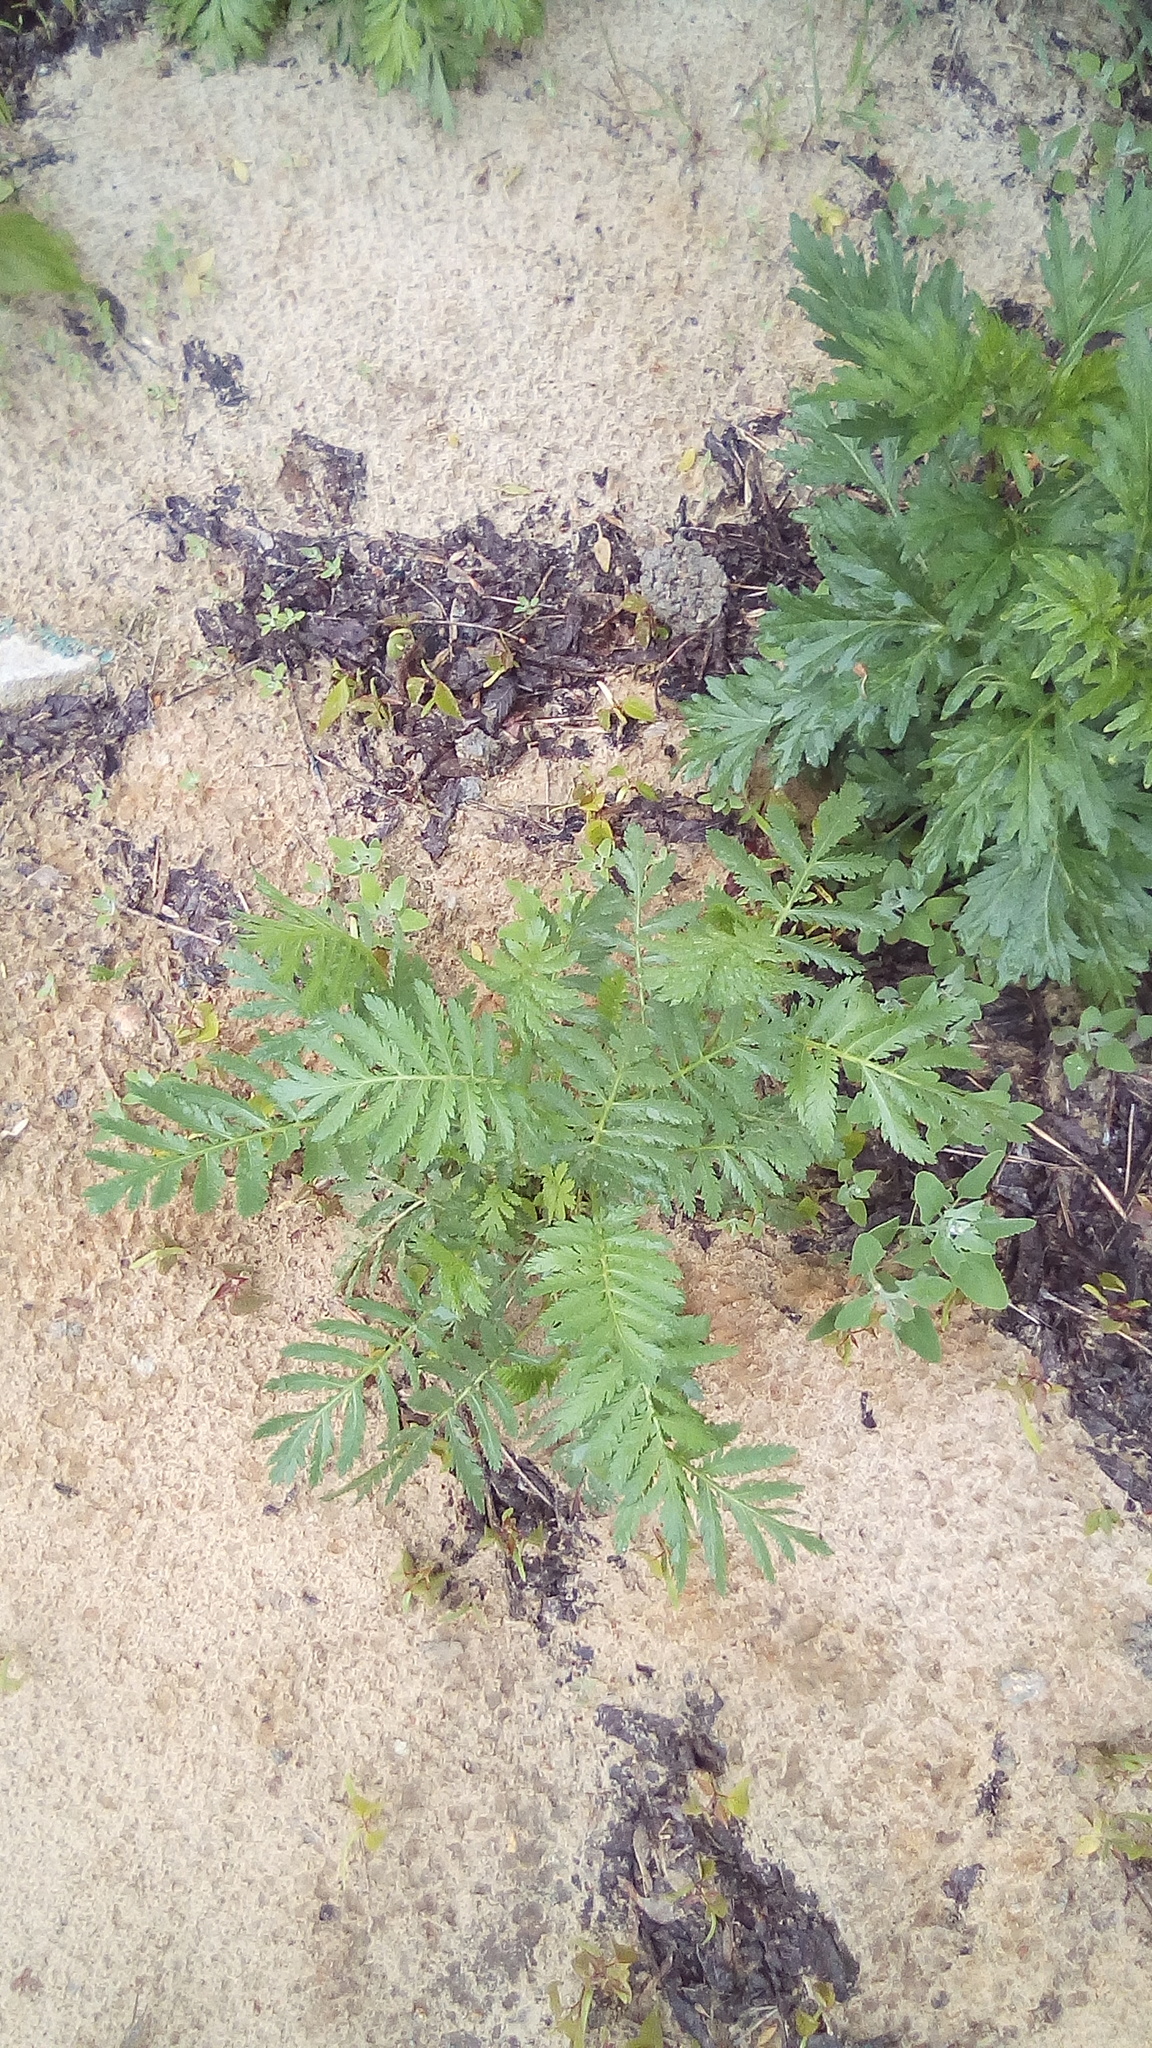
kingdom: Plantae
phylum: Tracheophyta
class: Magnoliopsida
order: Asterales
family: Asteraceae
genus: Tanacetum
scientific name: Tanacetum vulgare
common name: Common tansy
